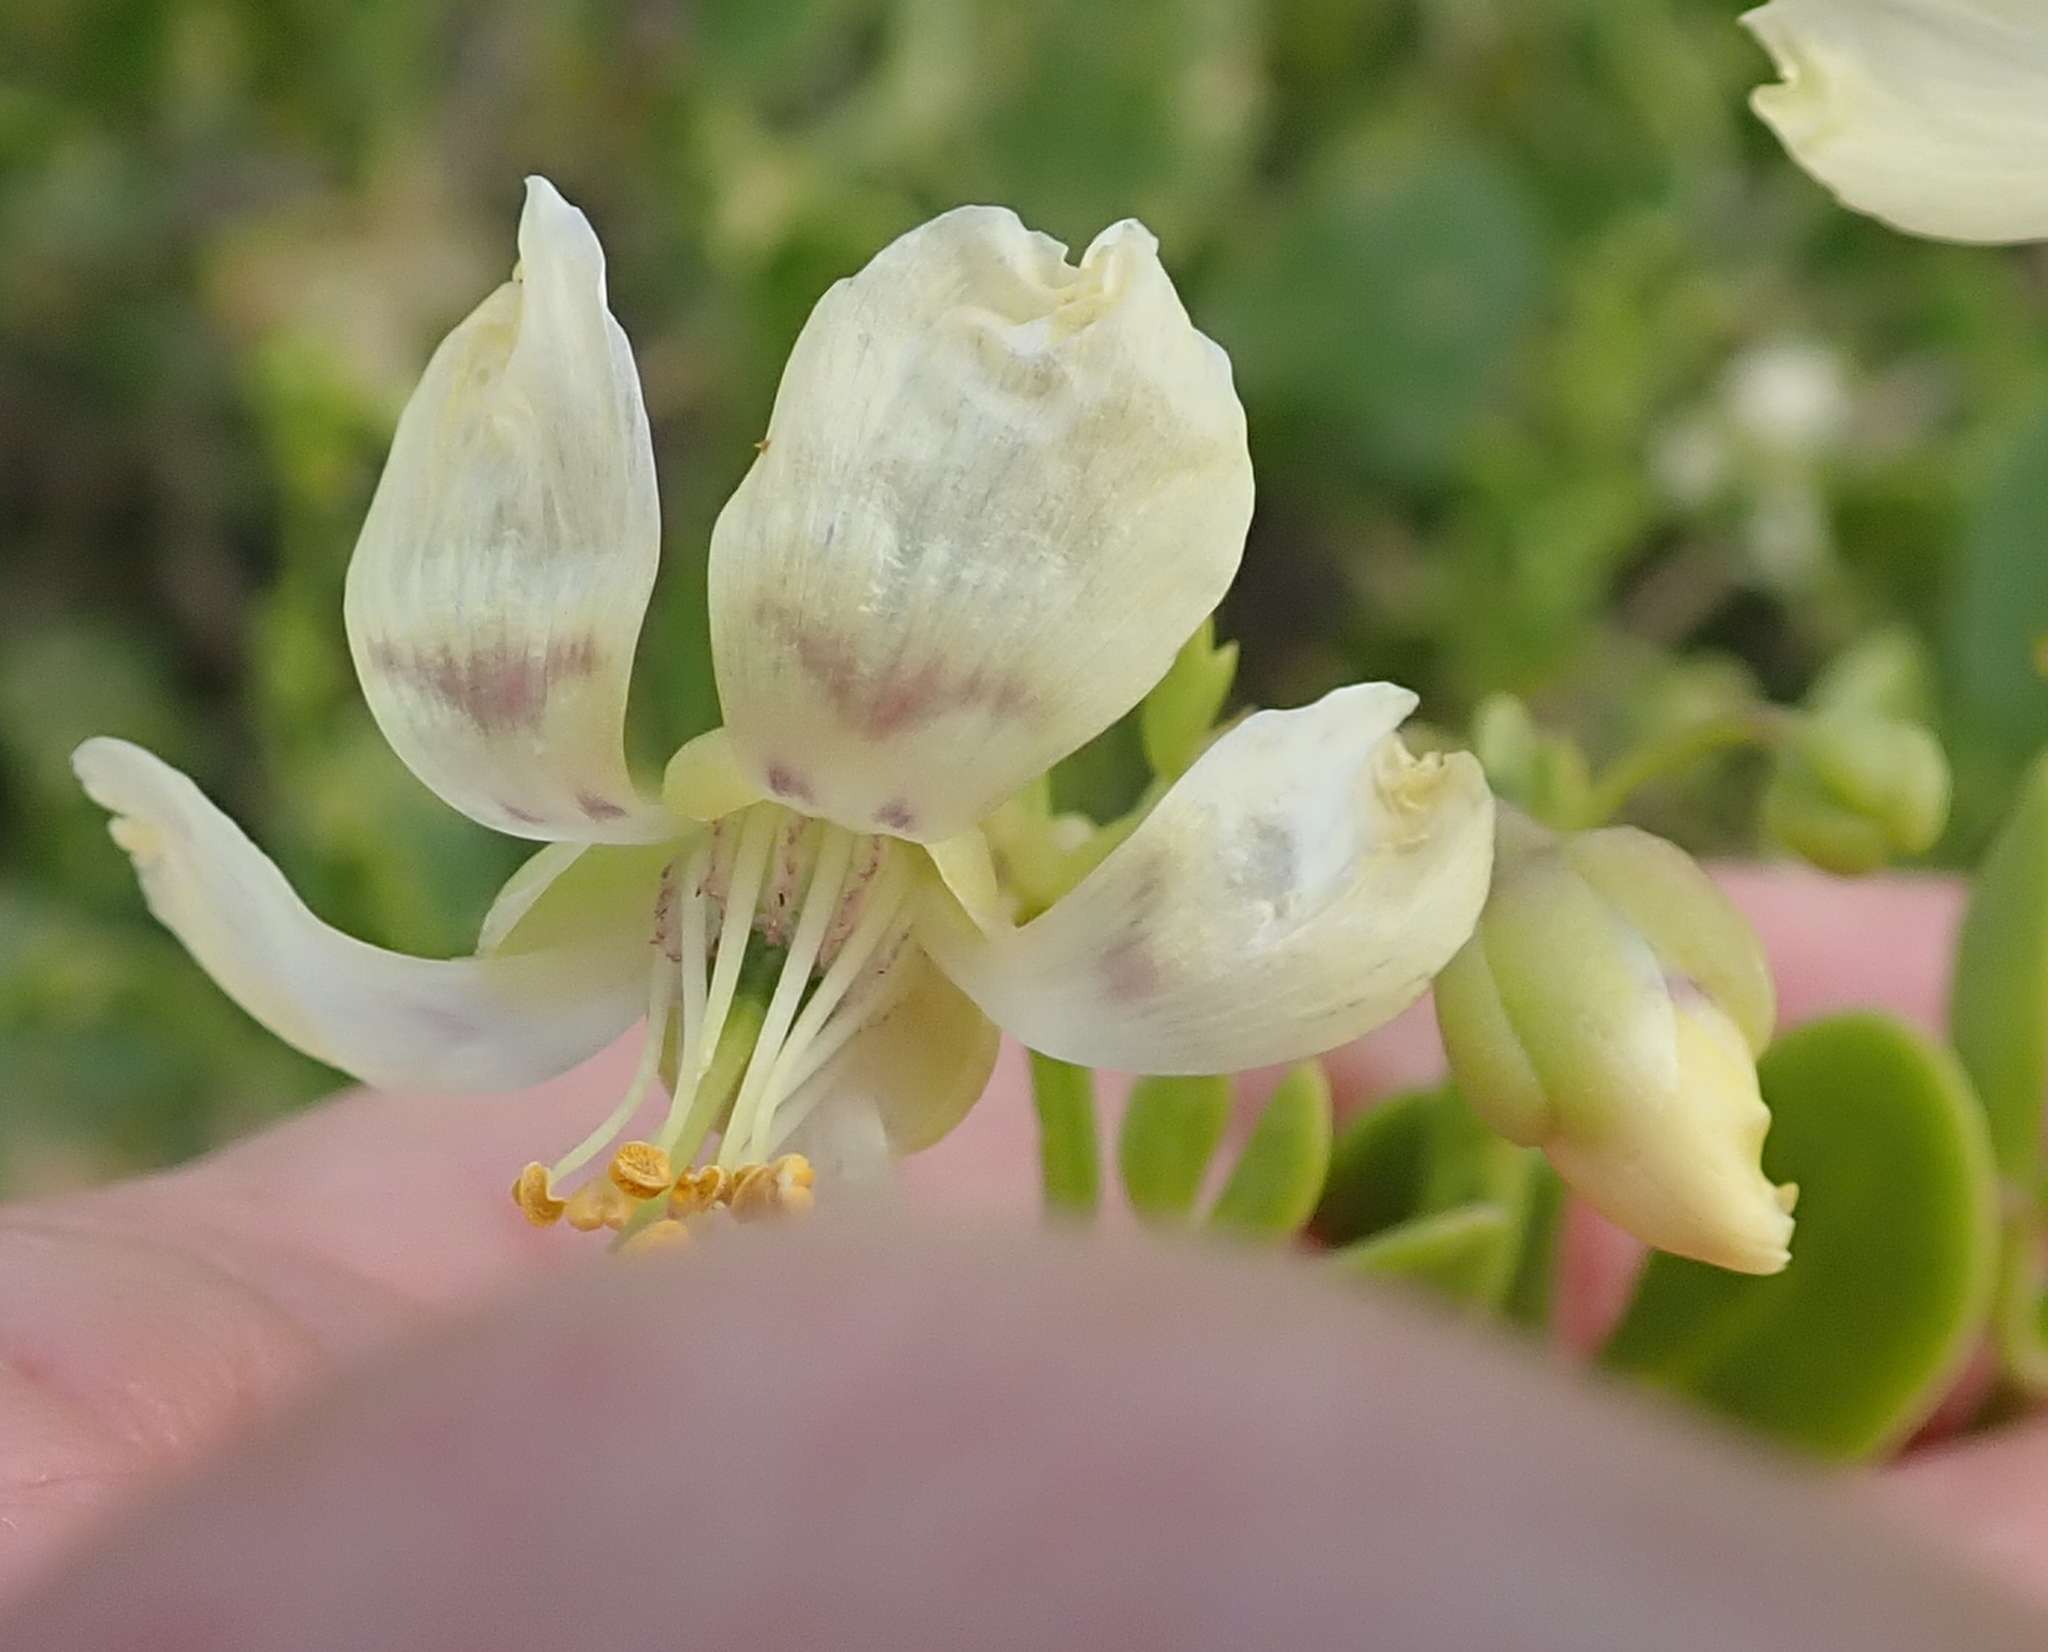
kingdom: Plantae
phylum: Tracheophyta
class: Magnoliopsida
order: Zygophyllales
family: Zygophyllaceae
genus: Roepera
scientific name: Roepera foetida
